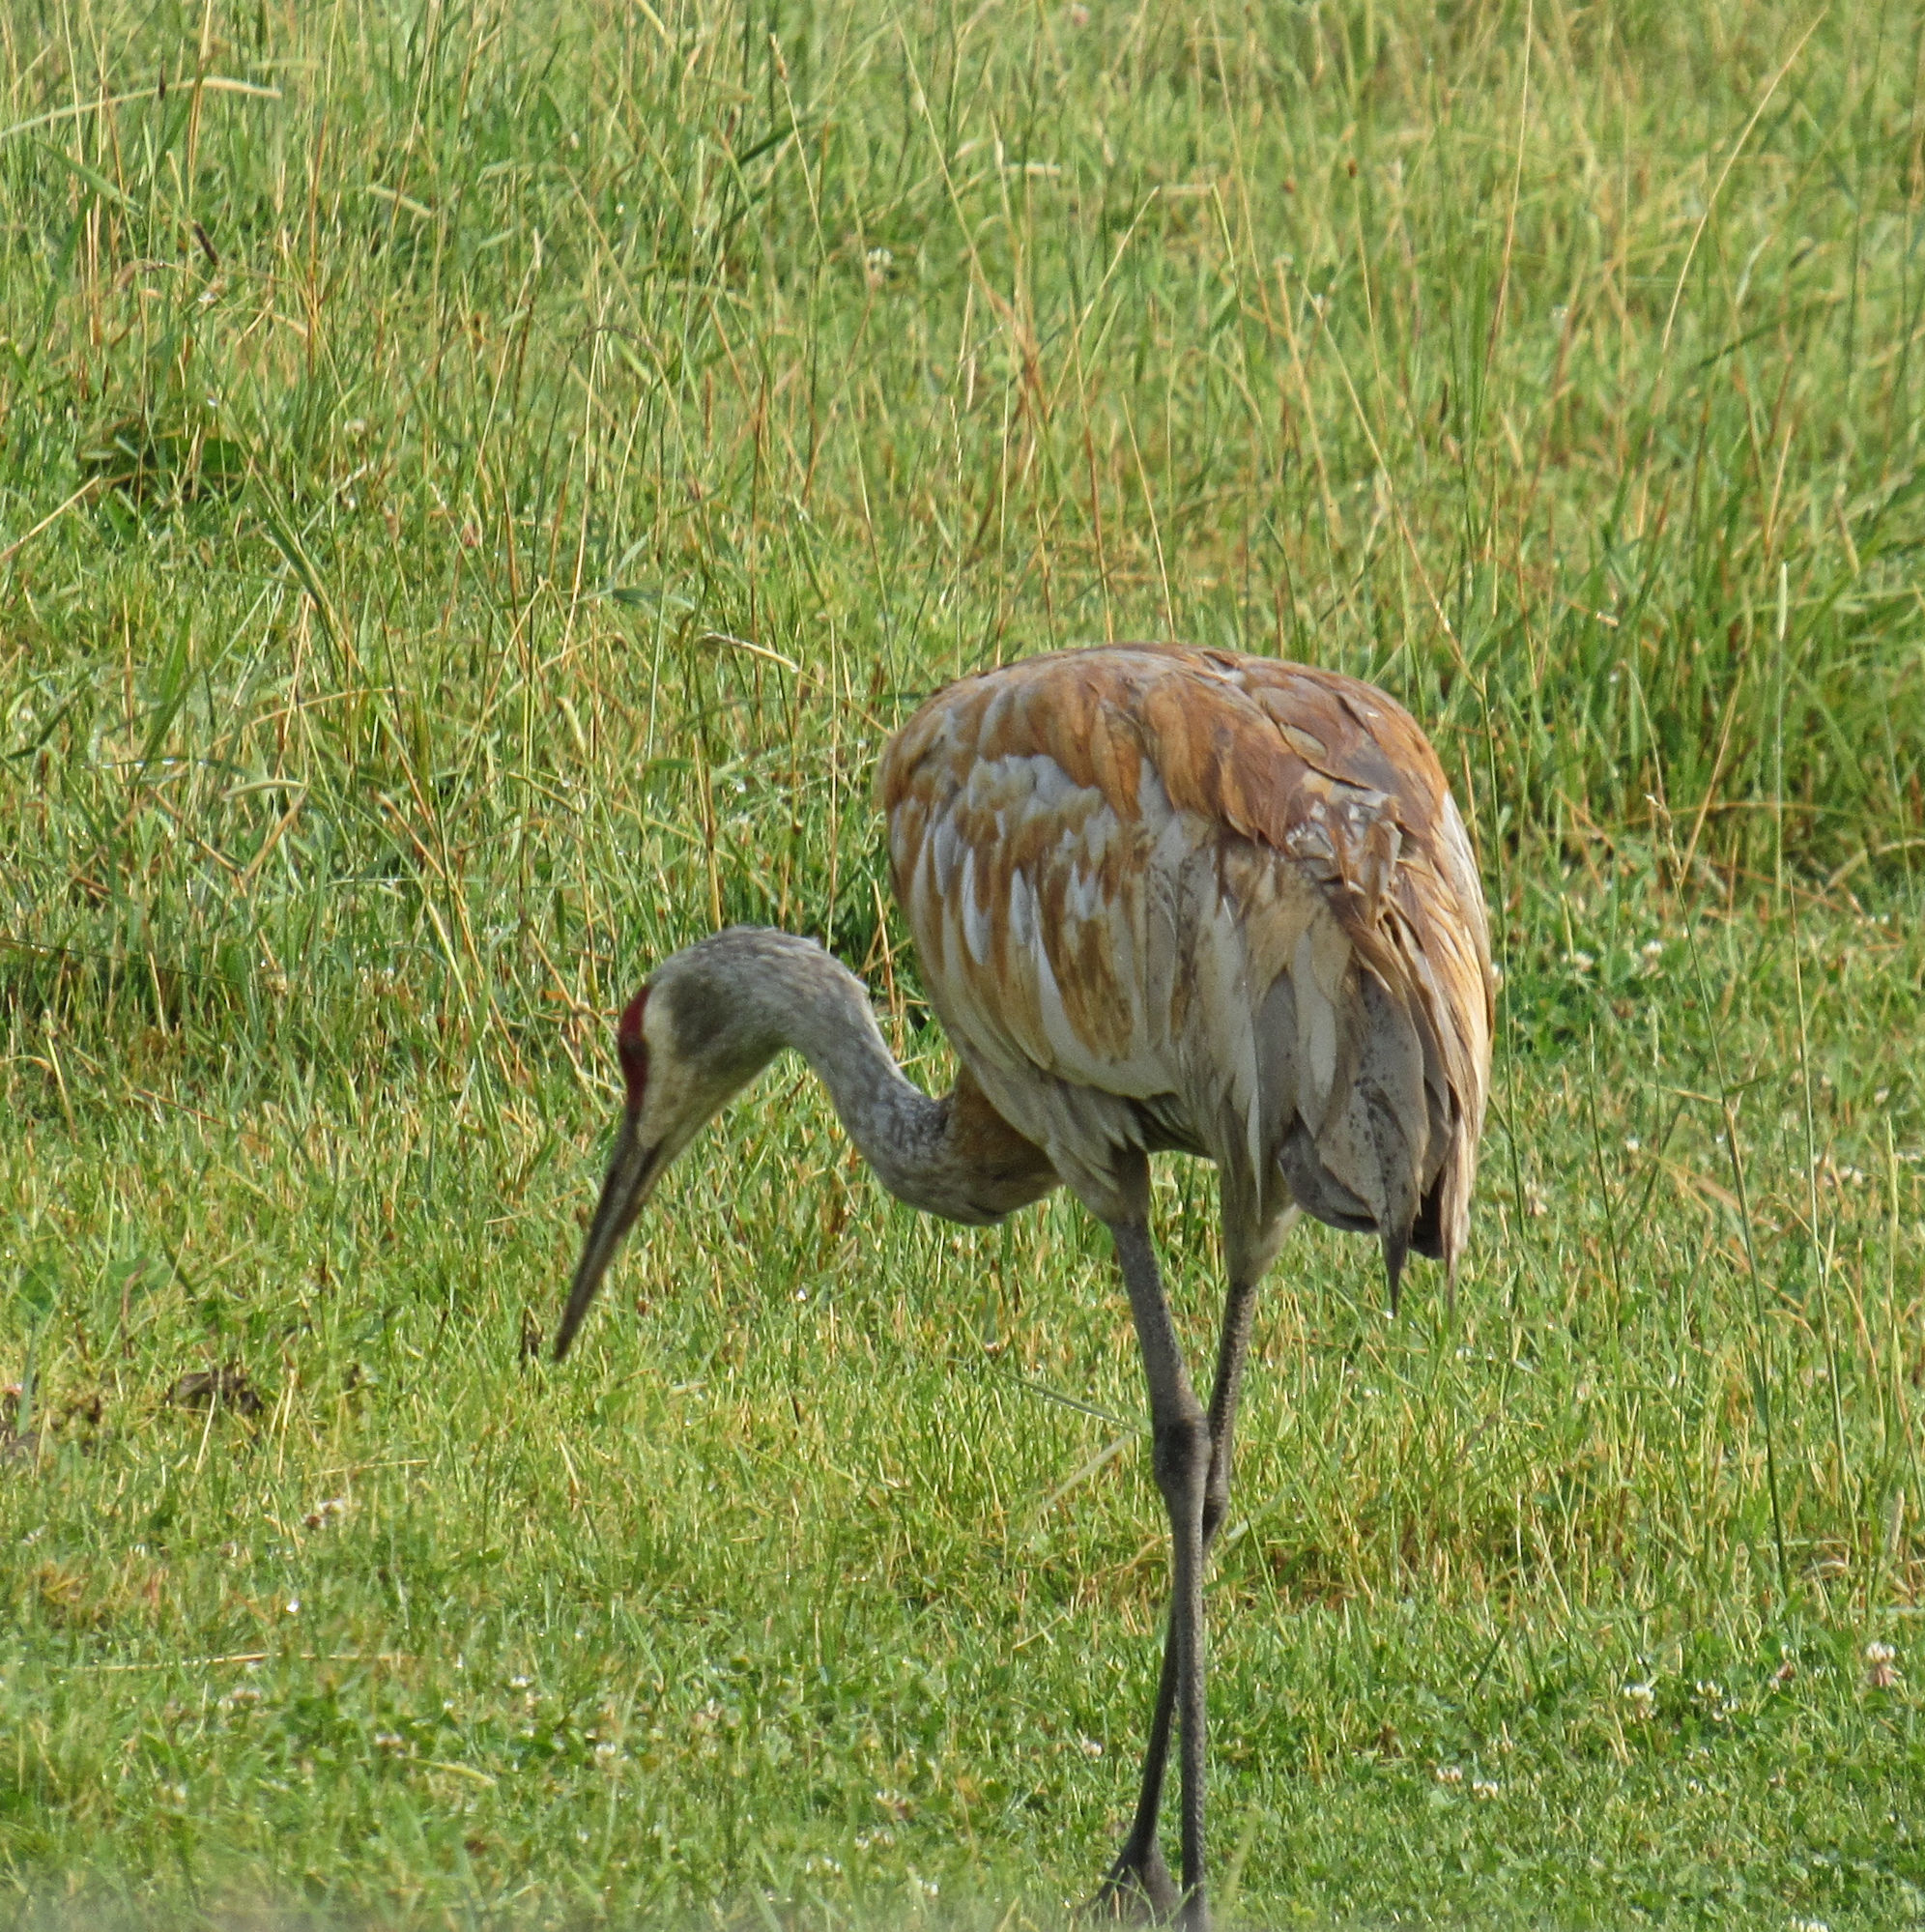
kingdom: Animalia
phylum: Chordata
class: Aves
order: Gruiformes
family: Gruidae
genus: Grus
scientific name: Grus canadensis
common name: Sandhill crane
